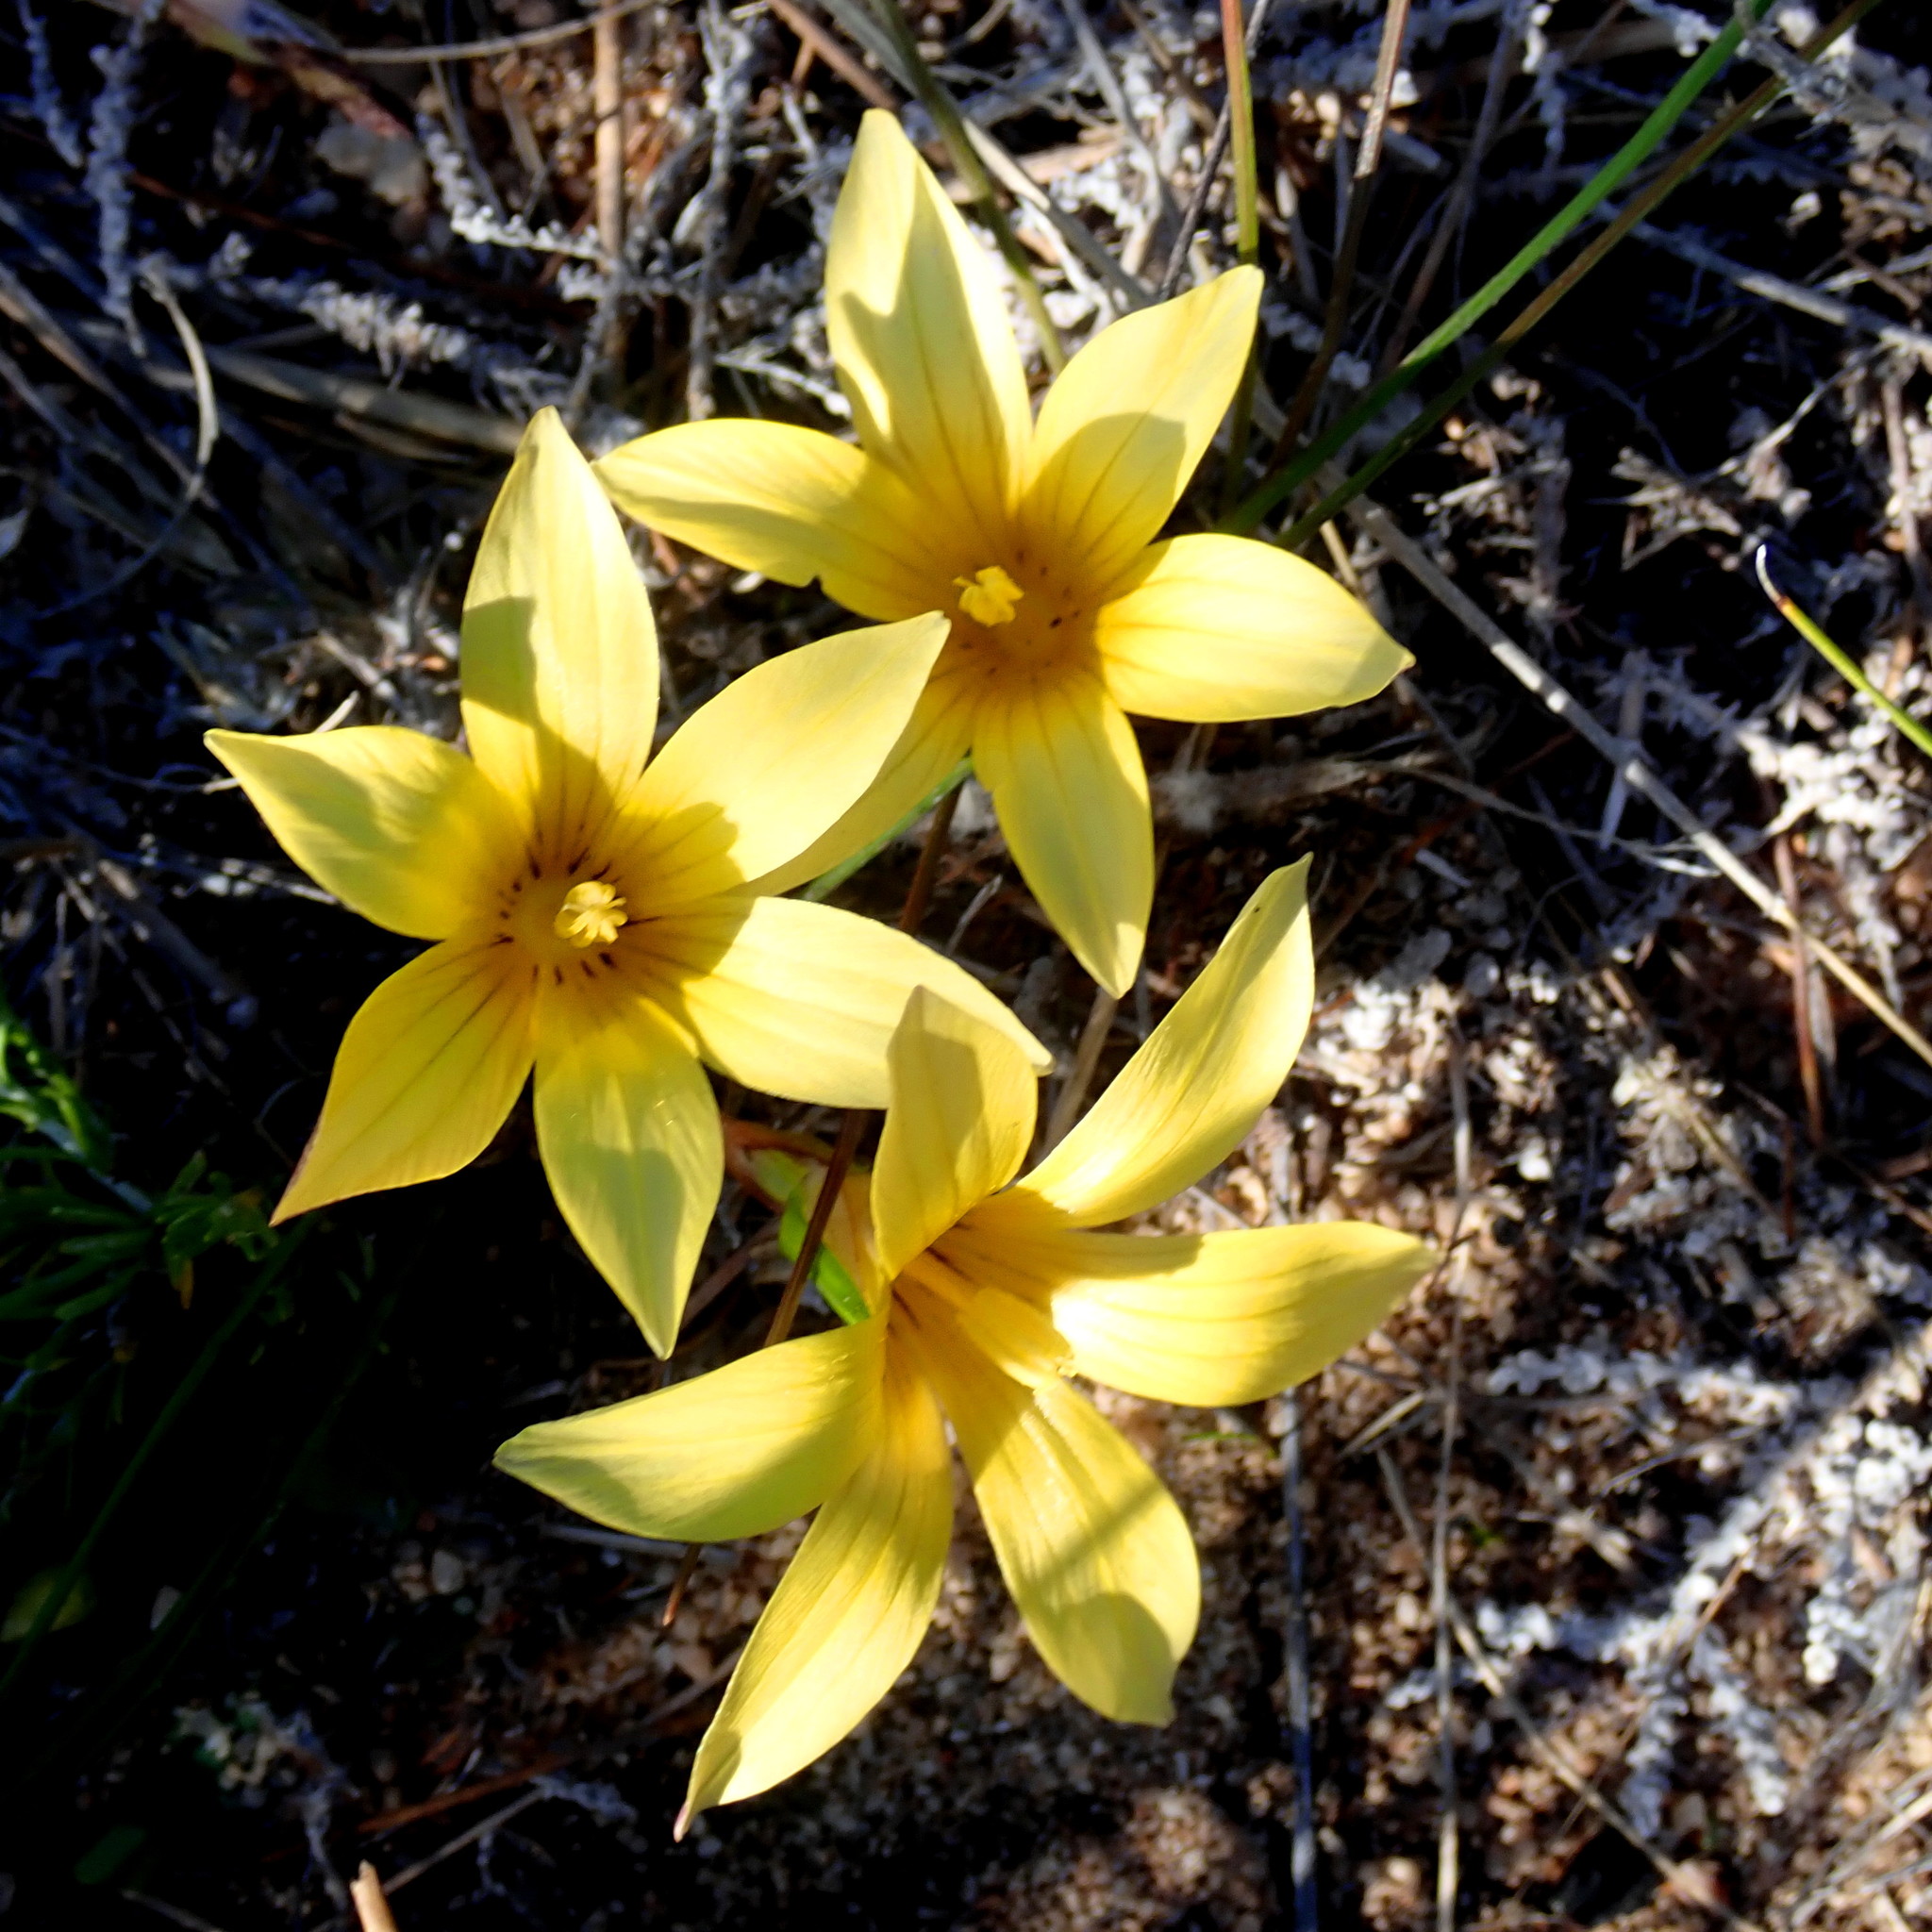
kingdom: Plantae
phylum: Tracheophyta
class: Liliopsida
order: Asparagales
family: Iridaceae
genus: Romulea
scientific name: Romulea austinii
